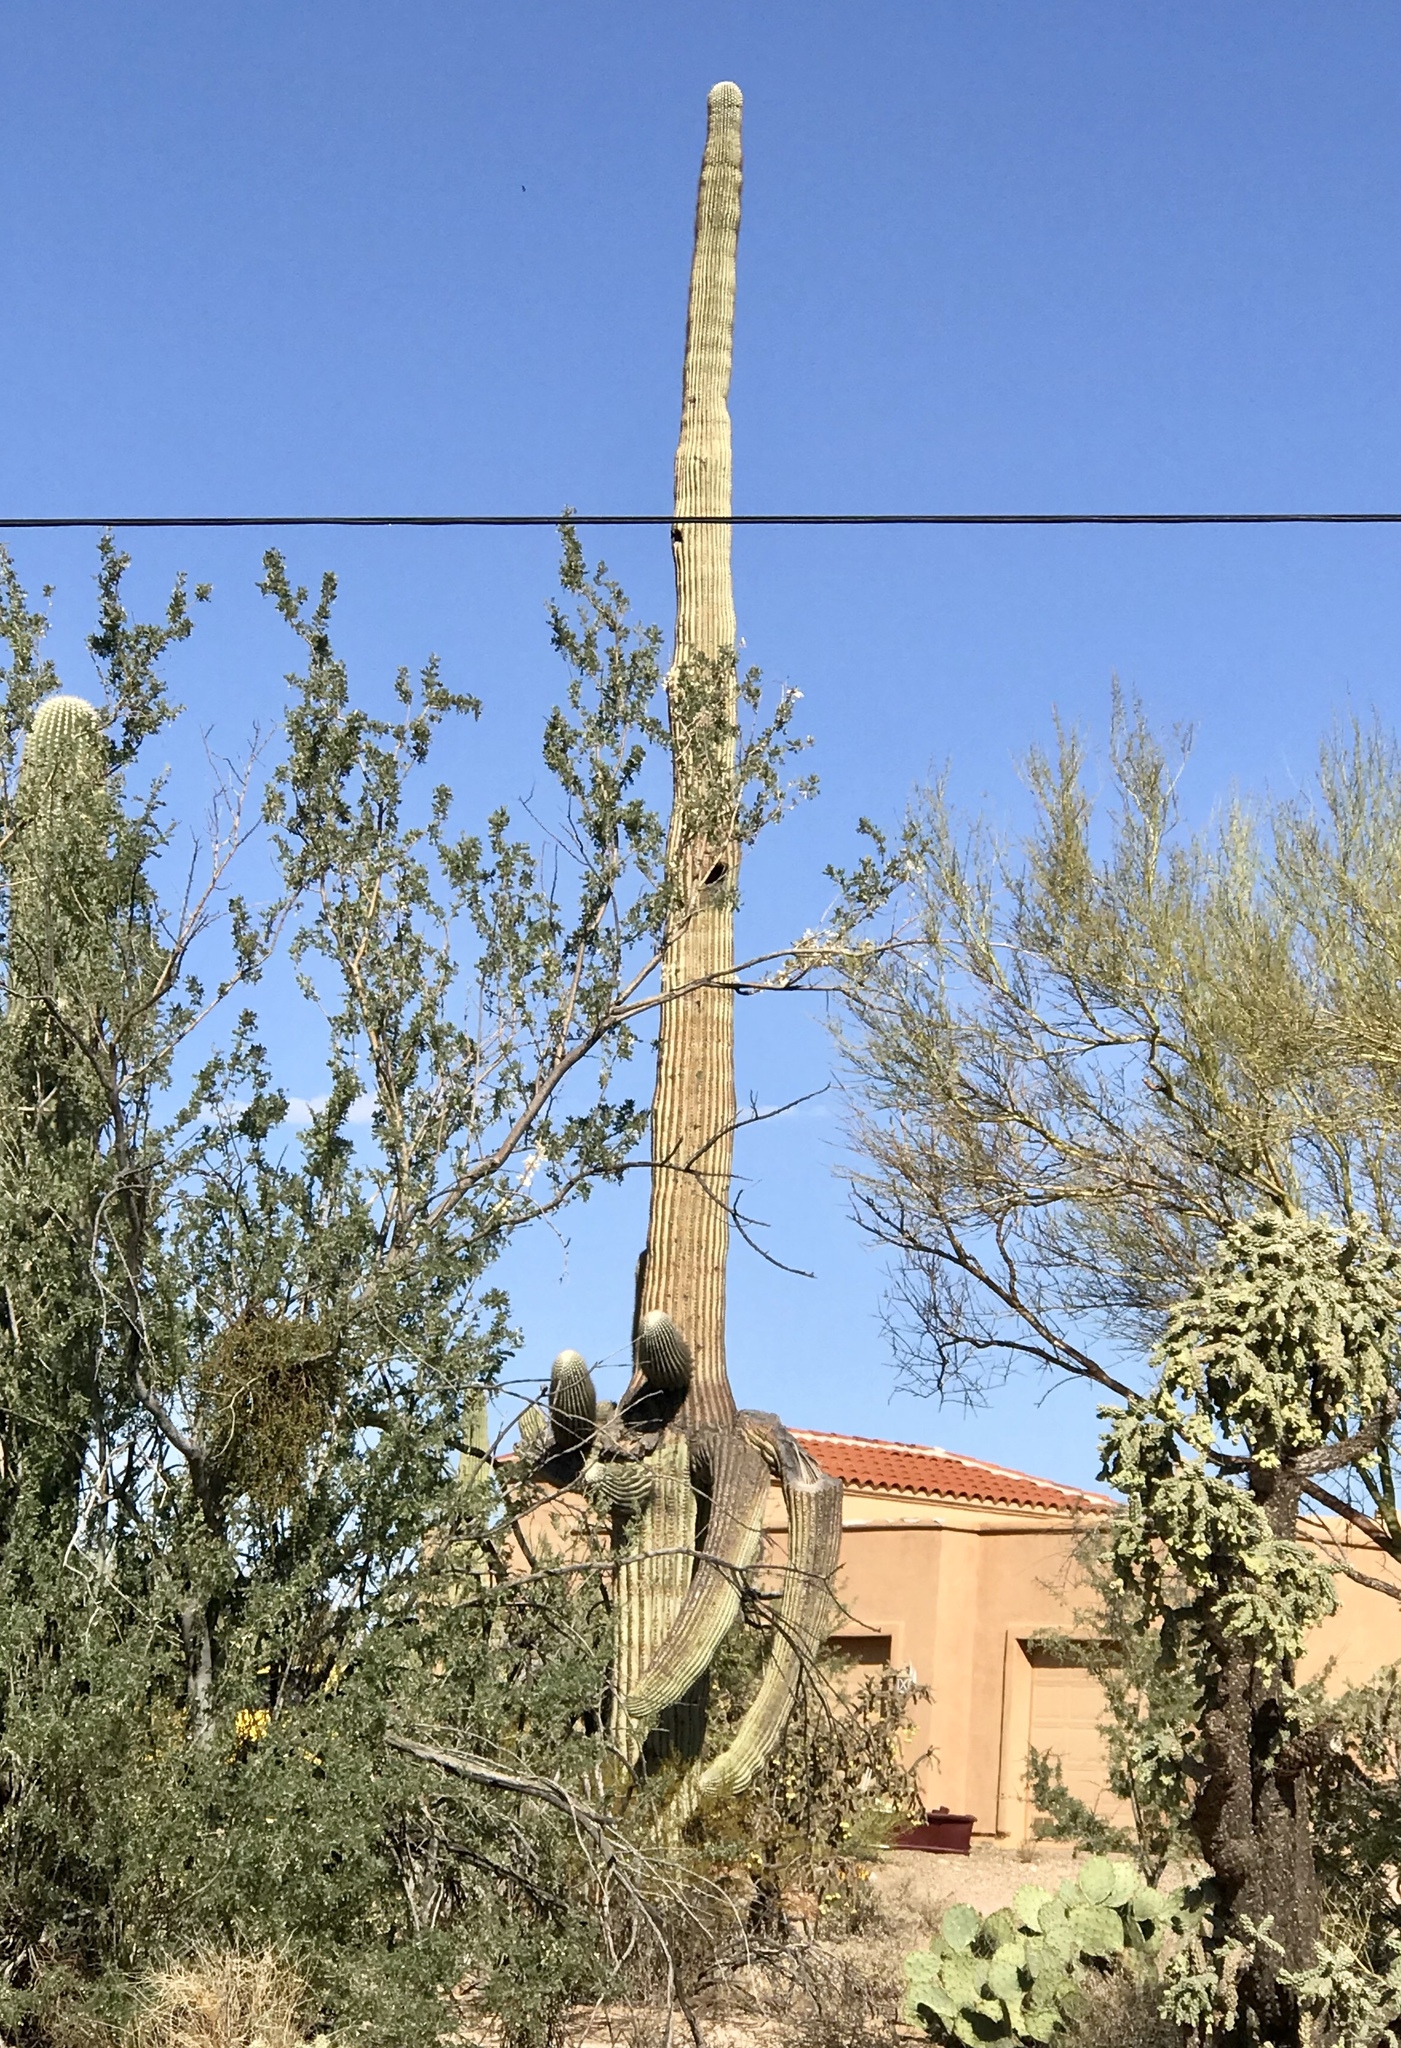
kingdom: Plantae
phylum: Tracheophyta
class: Magnoliopsida
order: Caryophyllales
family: Cactaceae
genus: Carnegiea
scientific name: Carnegiea gigantea
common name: Saguaro
